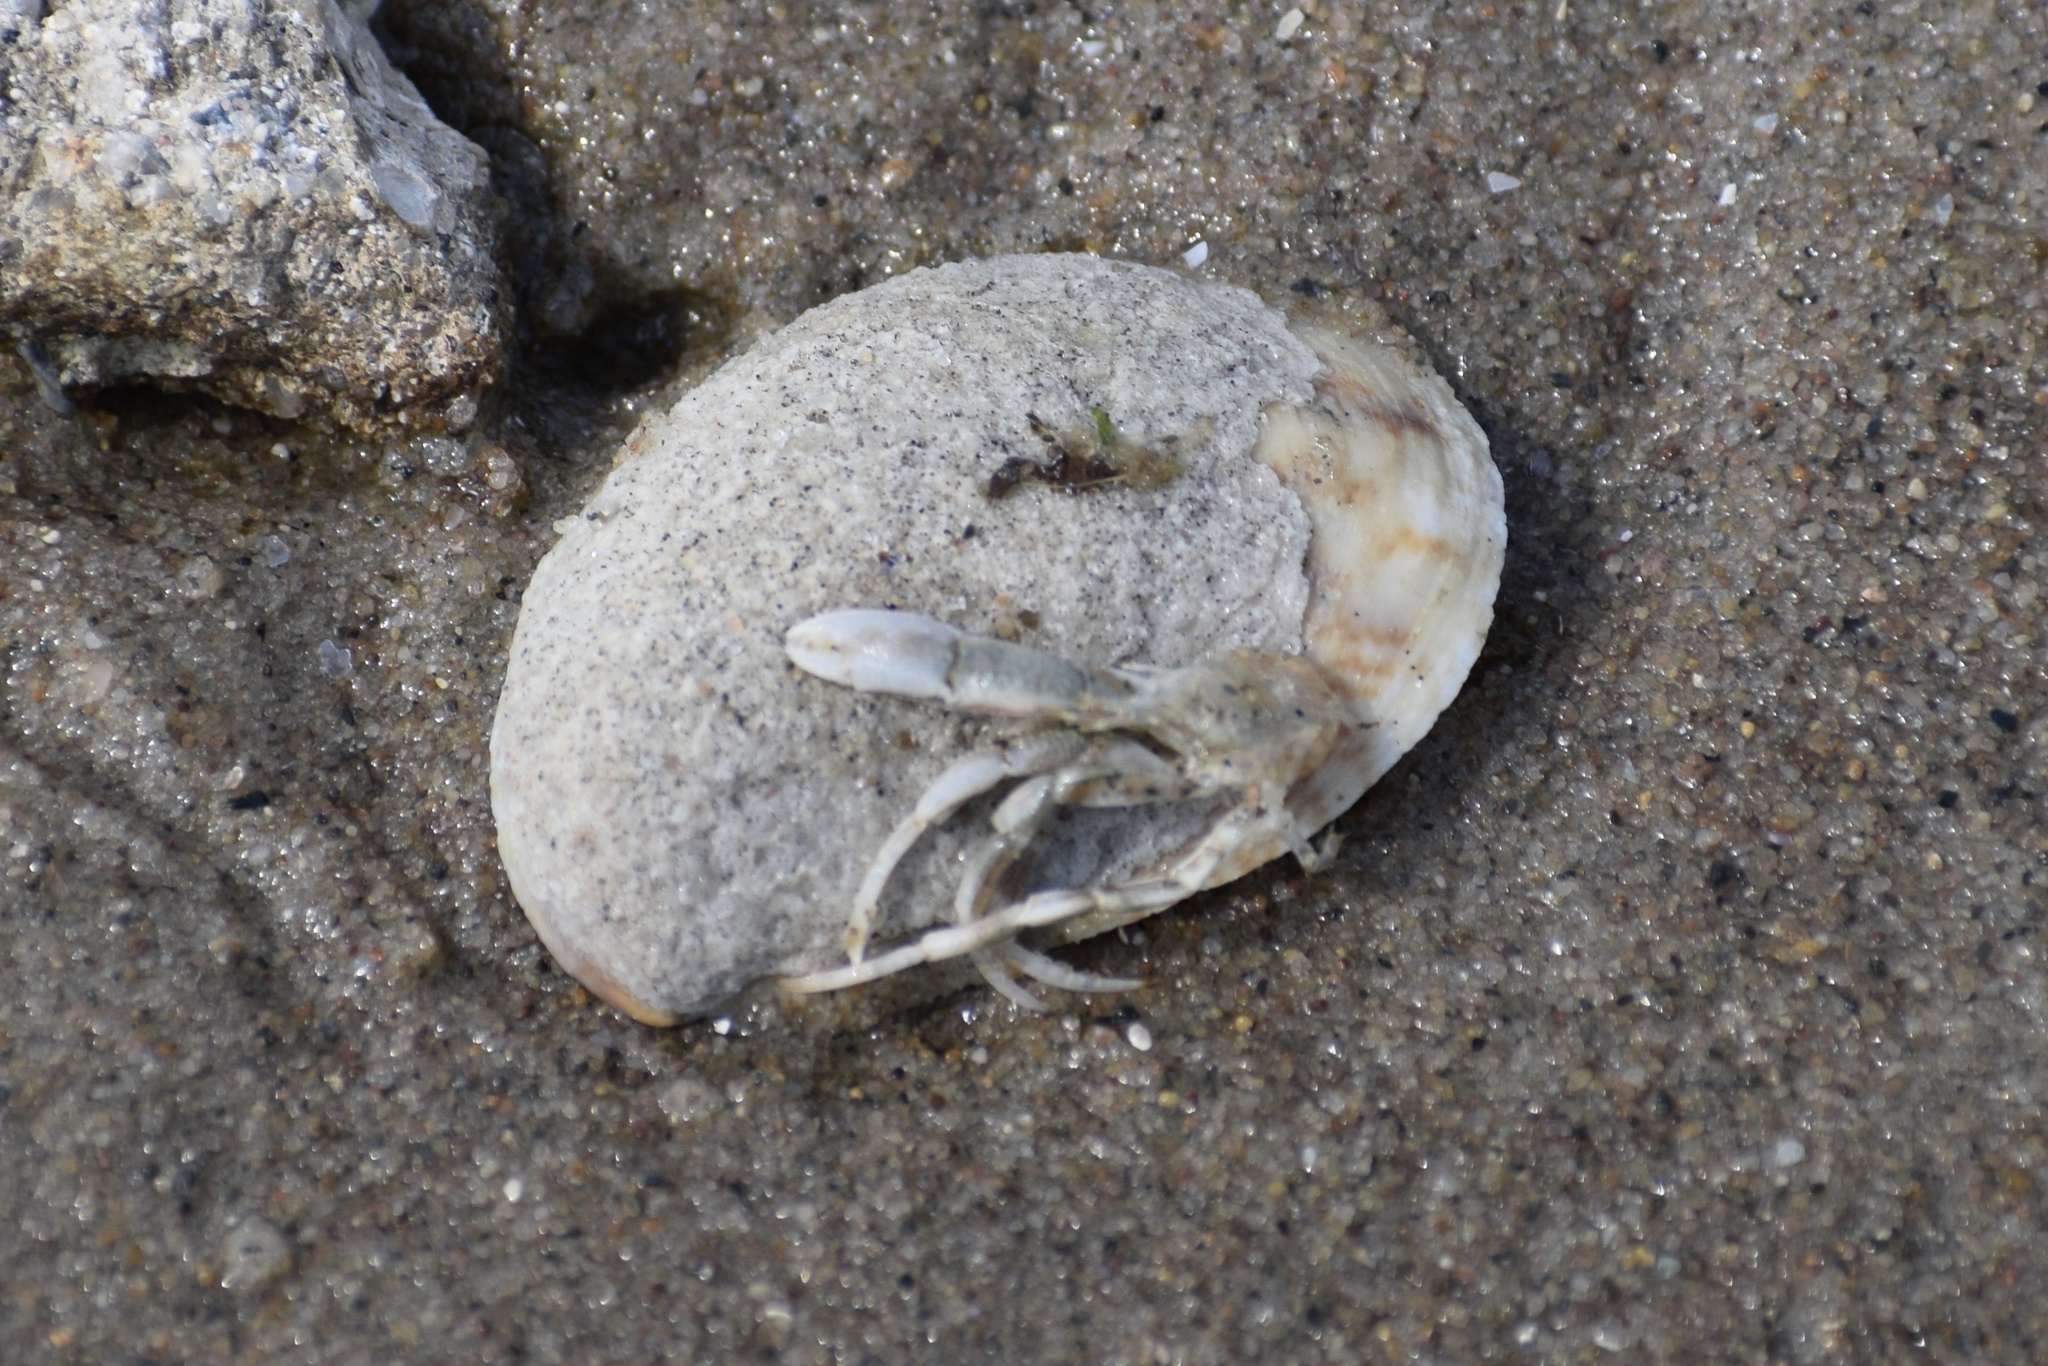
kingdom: Animalia
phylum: Arthropoda
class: Malacostraca
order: Decapoda
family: Paguridae
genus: Pagurus
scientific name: Pagurus longicarpus
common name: Long-armed hermit crab
